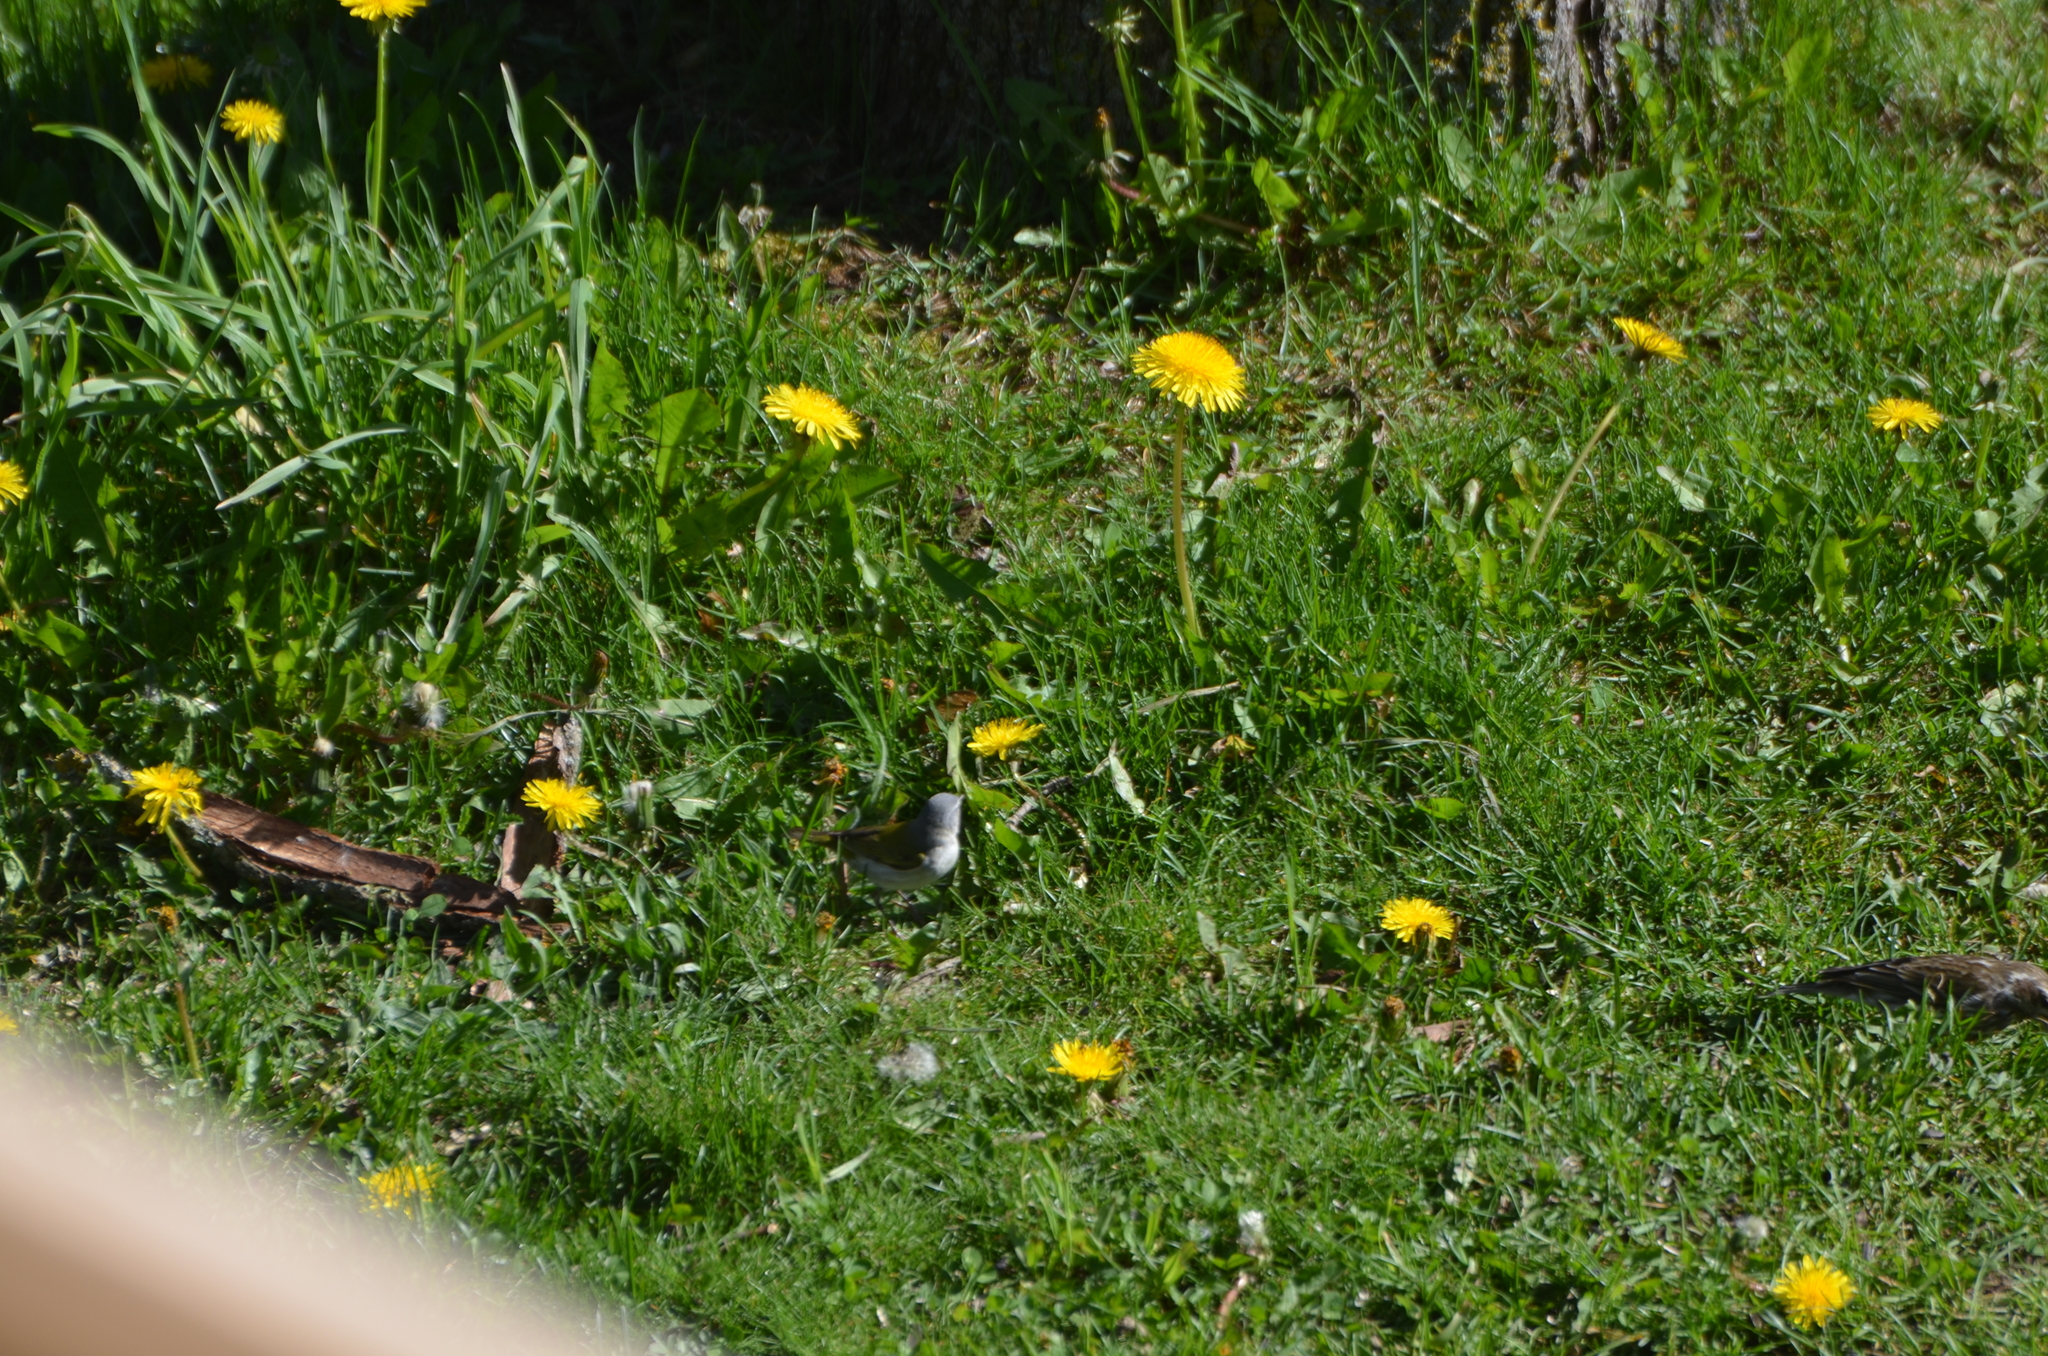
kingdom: Animalia
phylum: Chordata
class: Aves
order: Passeriformes
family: Parulidae
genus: Leiothlypis
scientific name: Leiothlypis peregrina
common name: Tennessee warbler
